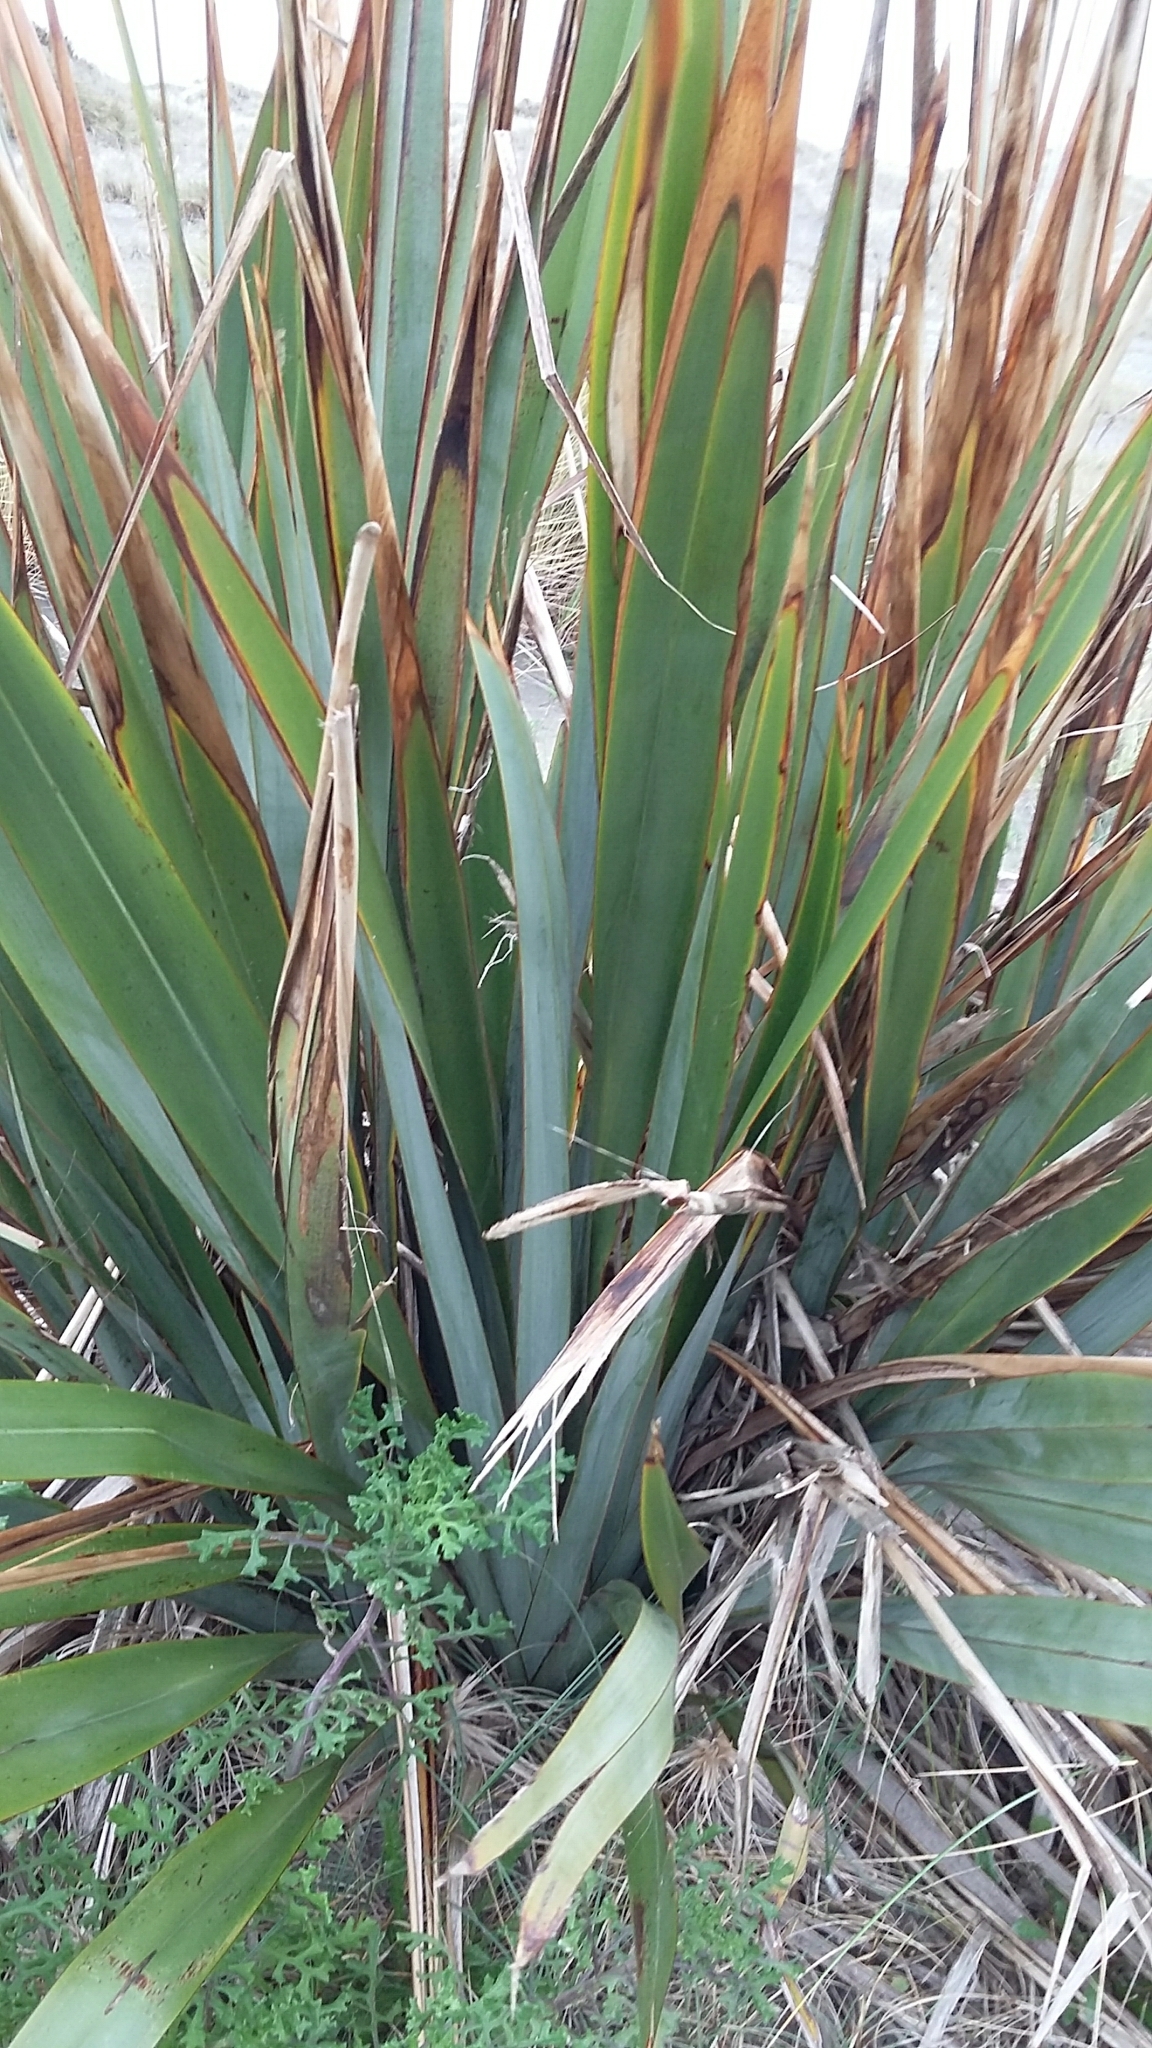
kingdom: Plantae
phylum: Tracheophyta
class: Liliopsida
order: Asparagales
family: Asphodelaceae
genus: Phormium
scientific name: Phormium tenax
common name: New zealand flax
